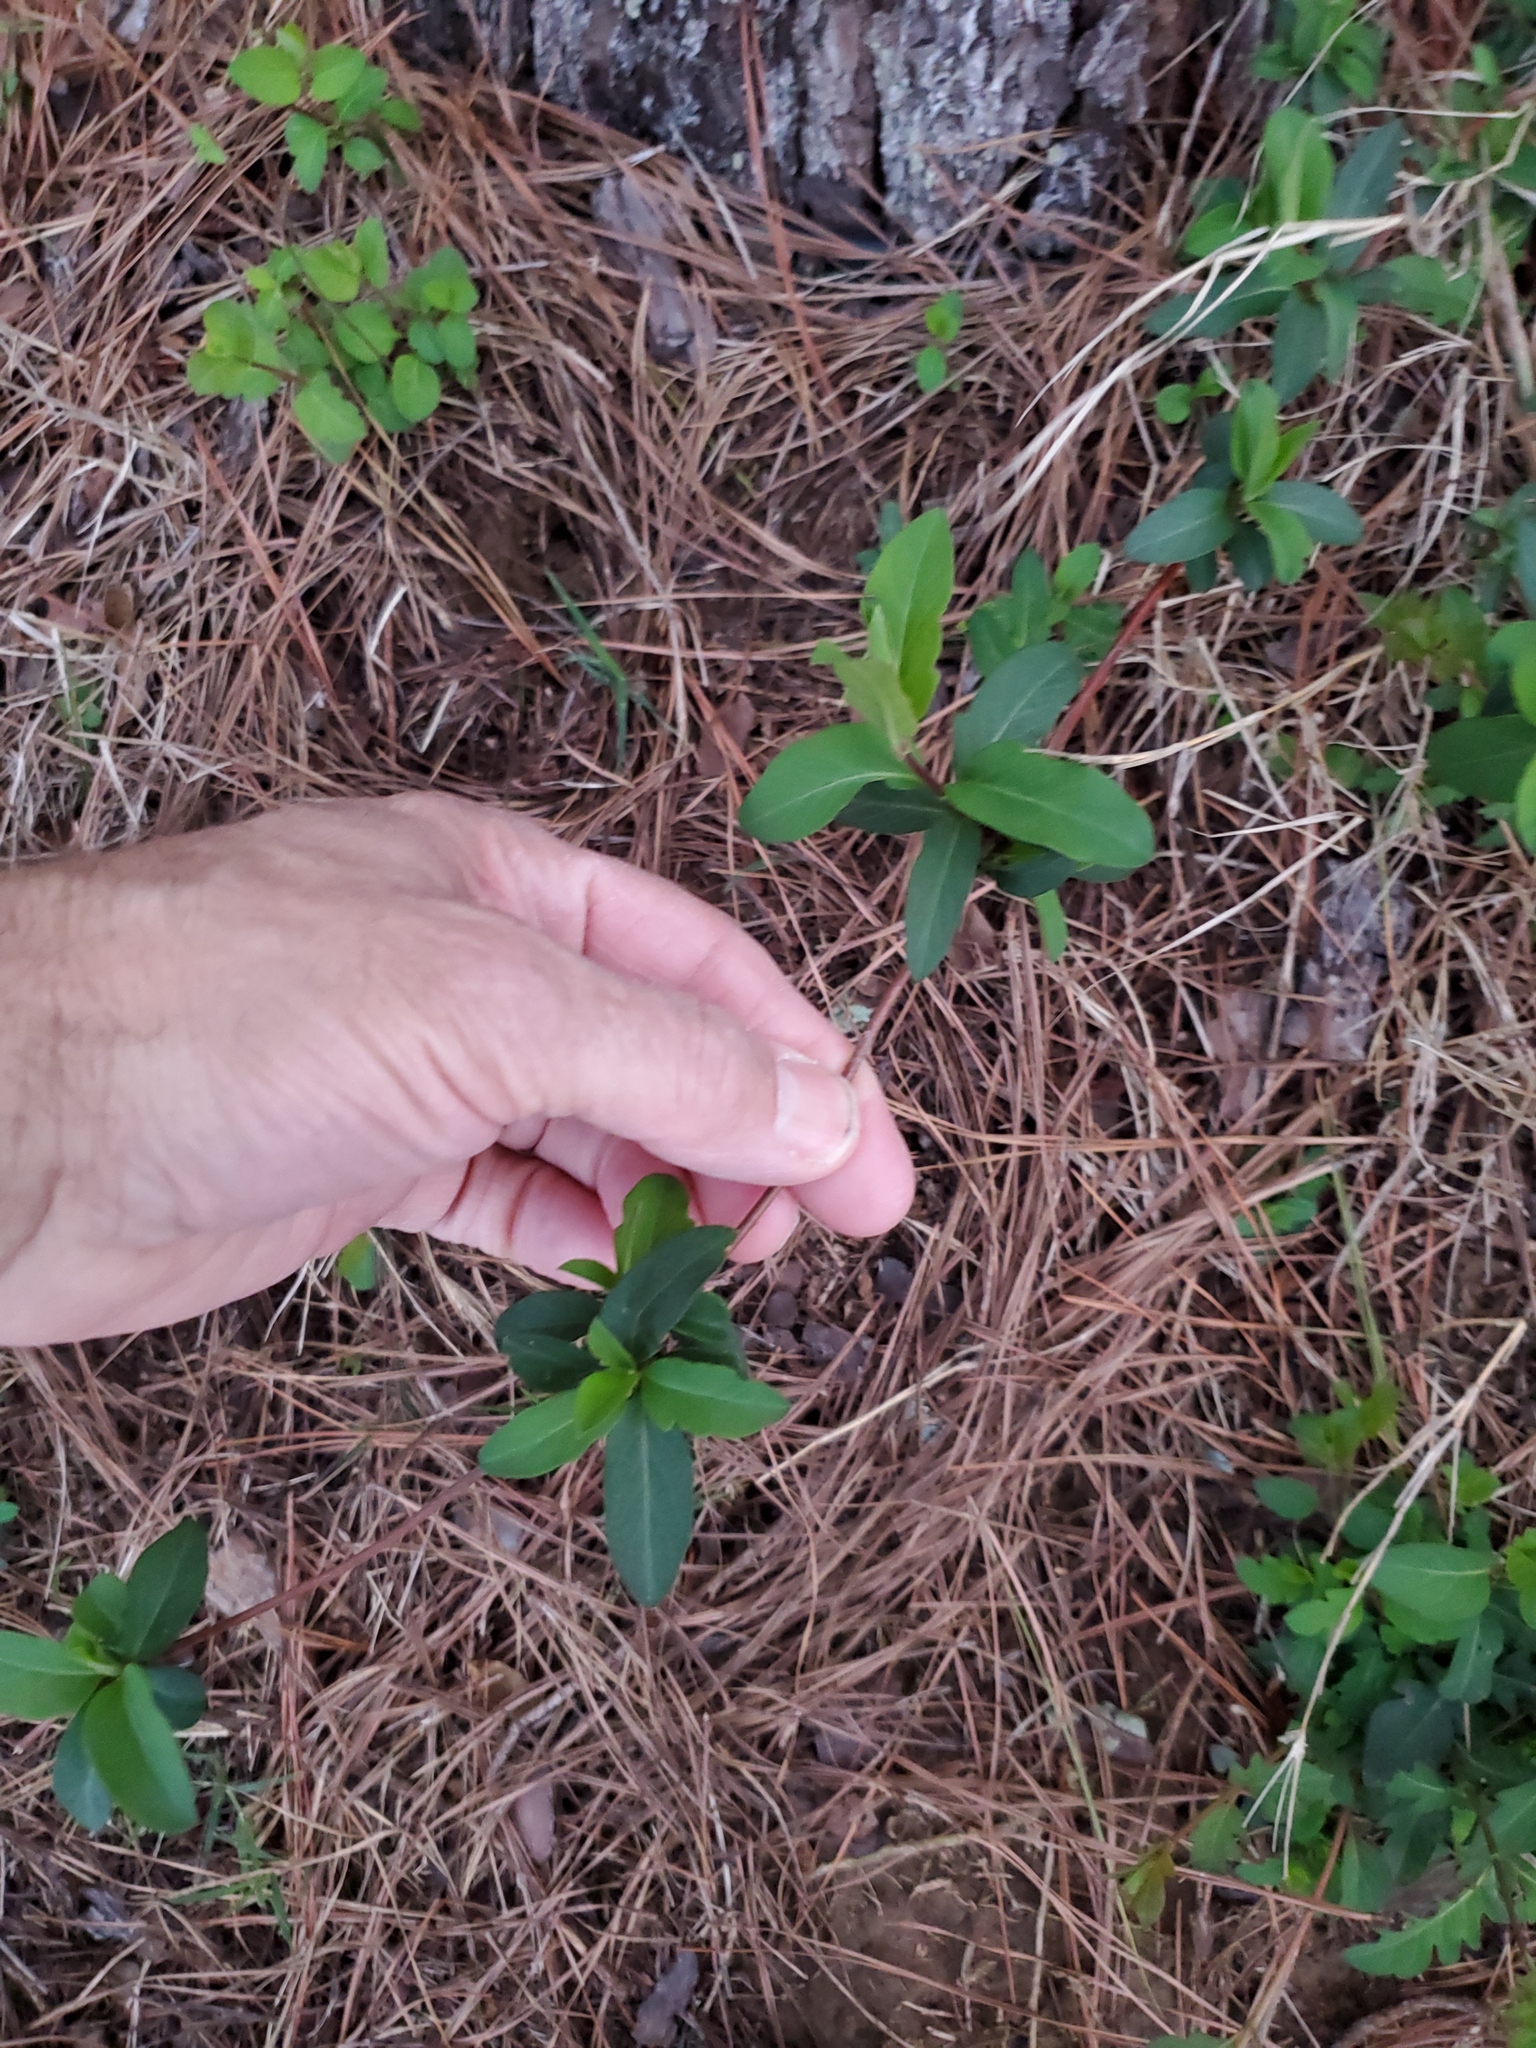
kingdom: Plantae
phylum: Tracheophyta
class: Magnoliopsida
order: Dipsacales
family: Caprifoliaceae
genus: Lonicera
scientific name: Lonicera japonica
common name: Japanese honeysuckle
